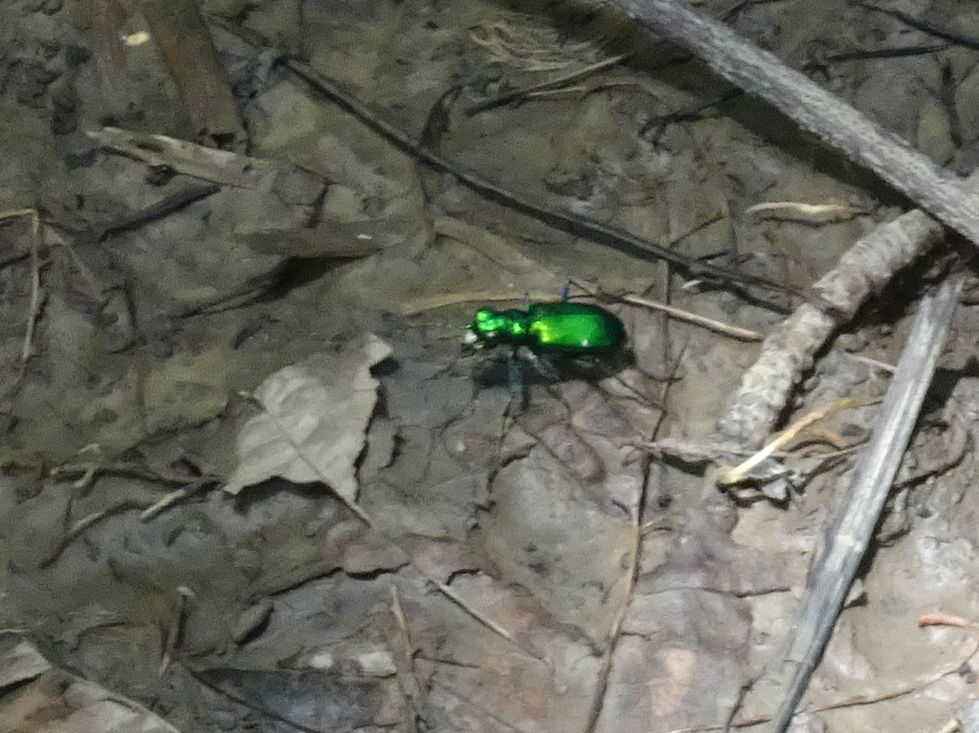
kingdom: Animalia
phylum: Arthropoda
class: Insecta
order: Coleoptera
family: Carabidae
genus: Cicindela
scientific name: Cicindela sexguttata
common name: Six-spotted tiger beetle
